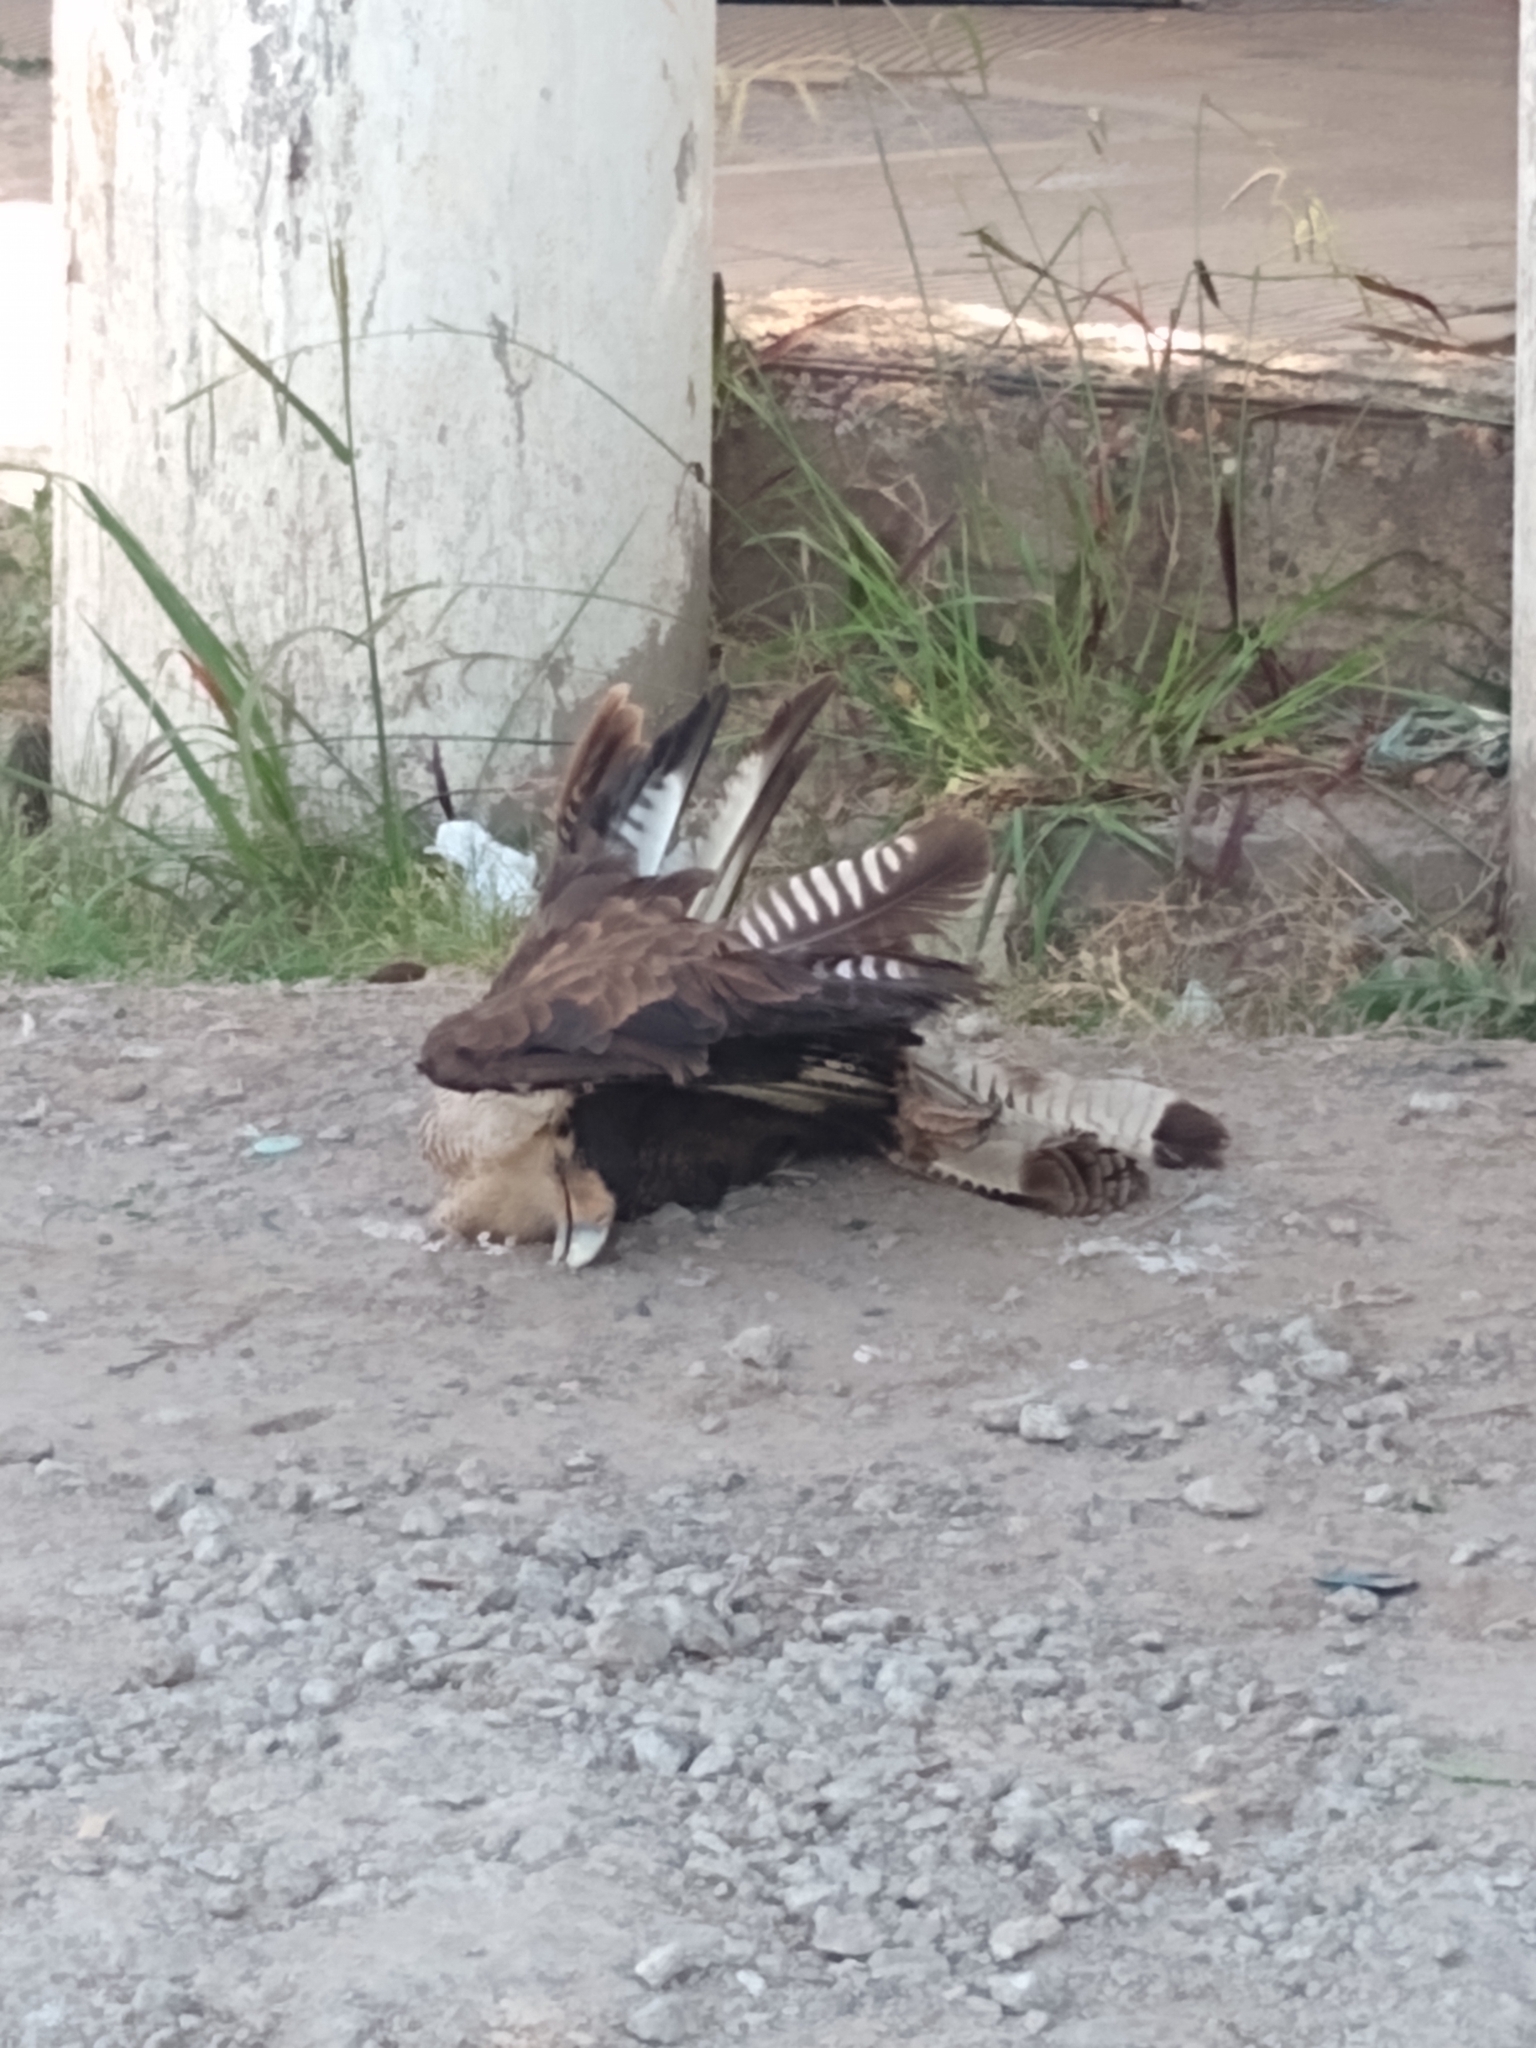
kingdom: Animalia
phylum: Chordata
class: Aves
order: Falconiformes
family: Falconidae
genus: Caracara
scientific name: Caracara plancus
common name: Southern caracara
